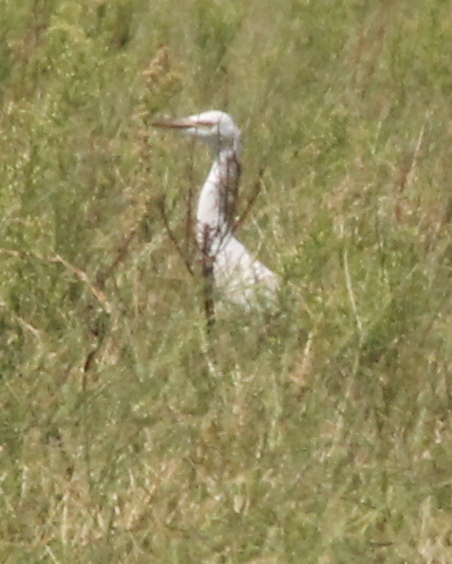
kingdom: Animalia
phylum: Chordata
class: Aves
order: Pelecaniformes
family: Ardeidae
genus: Bubulcus
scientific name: Bubulcus ibis
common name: Cattle egret
